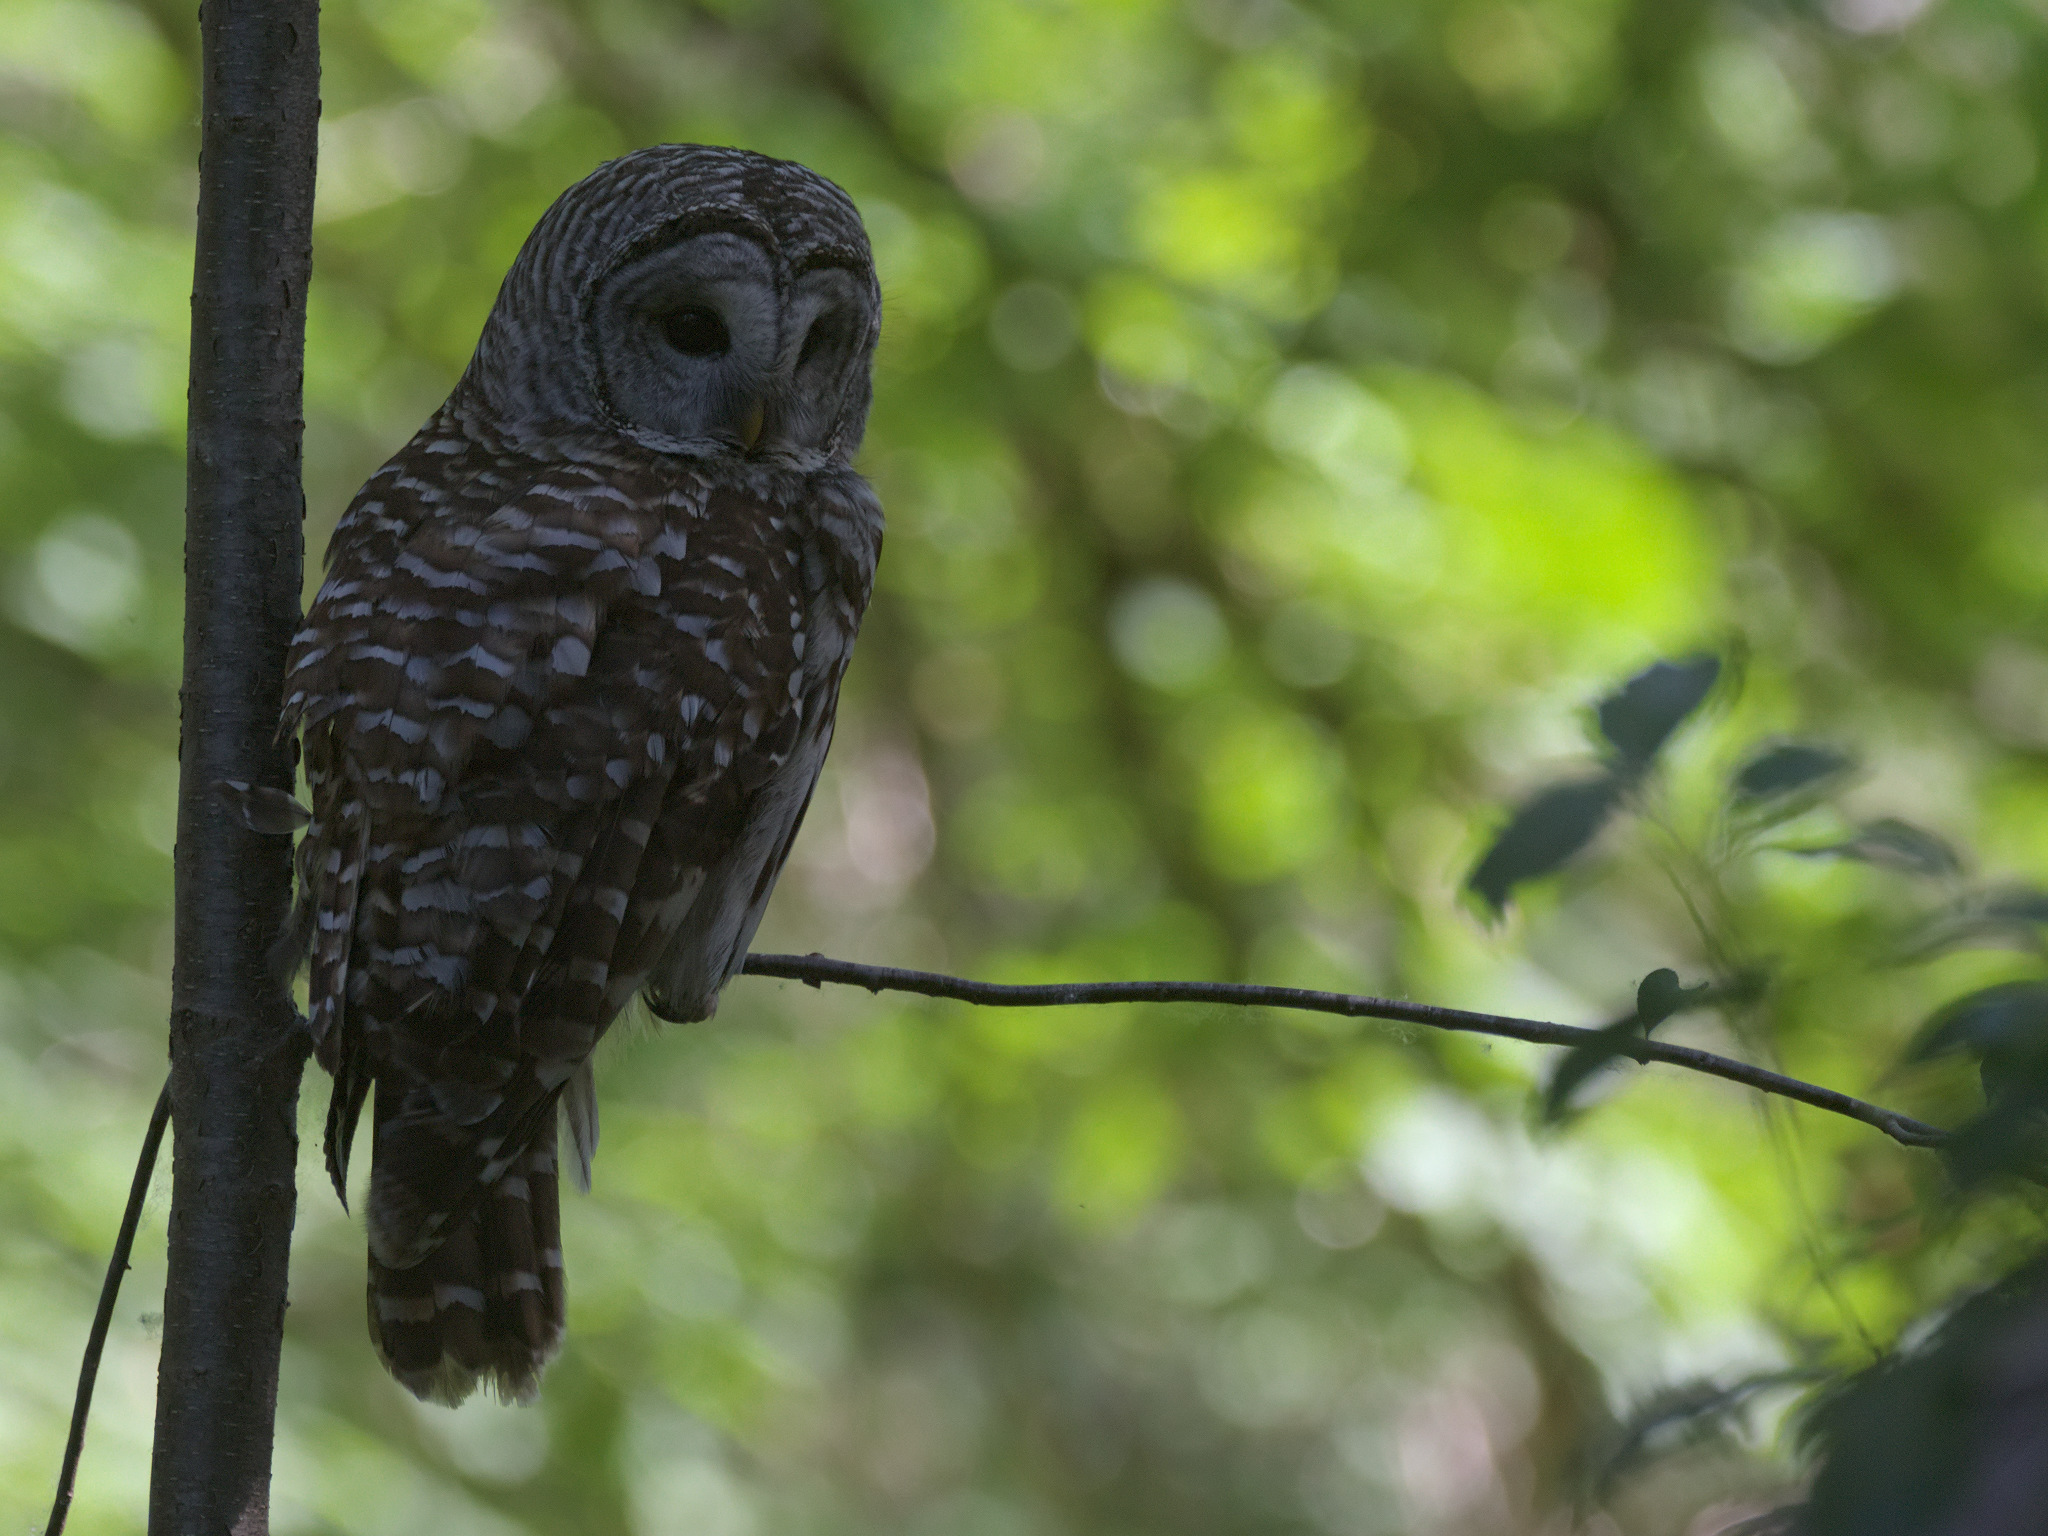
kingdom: Animalia
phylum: Chordata
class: Aves
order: Strigiformes
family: Strigidae
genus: Strix
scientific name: Strix varia
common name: Barred owl
